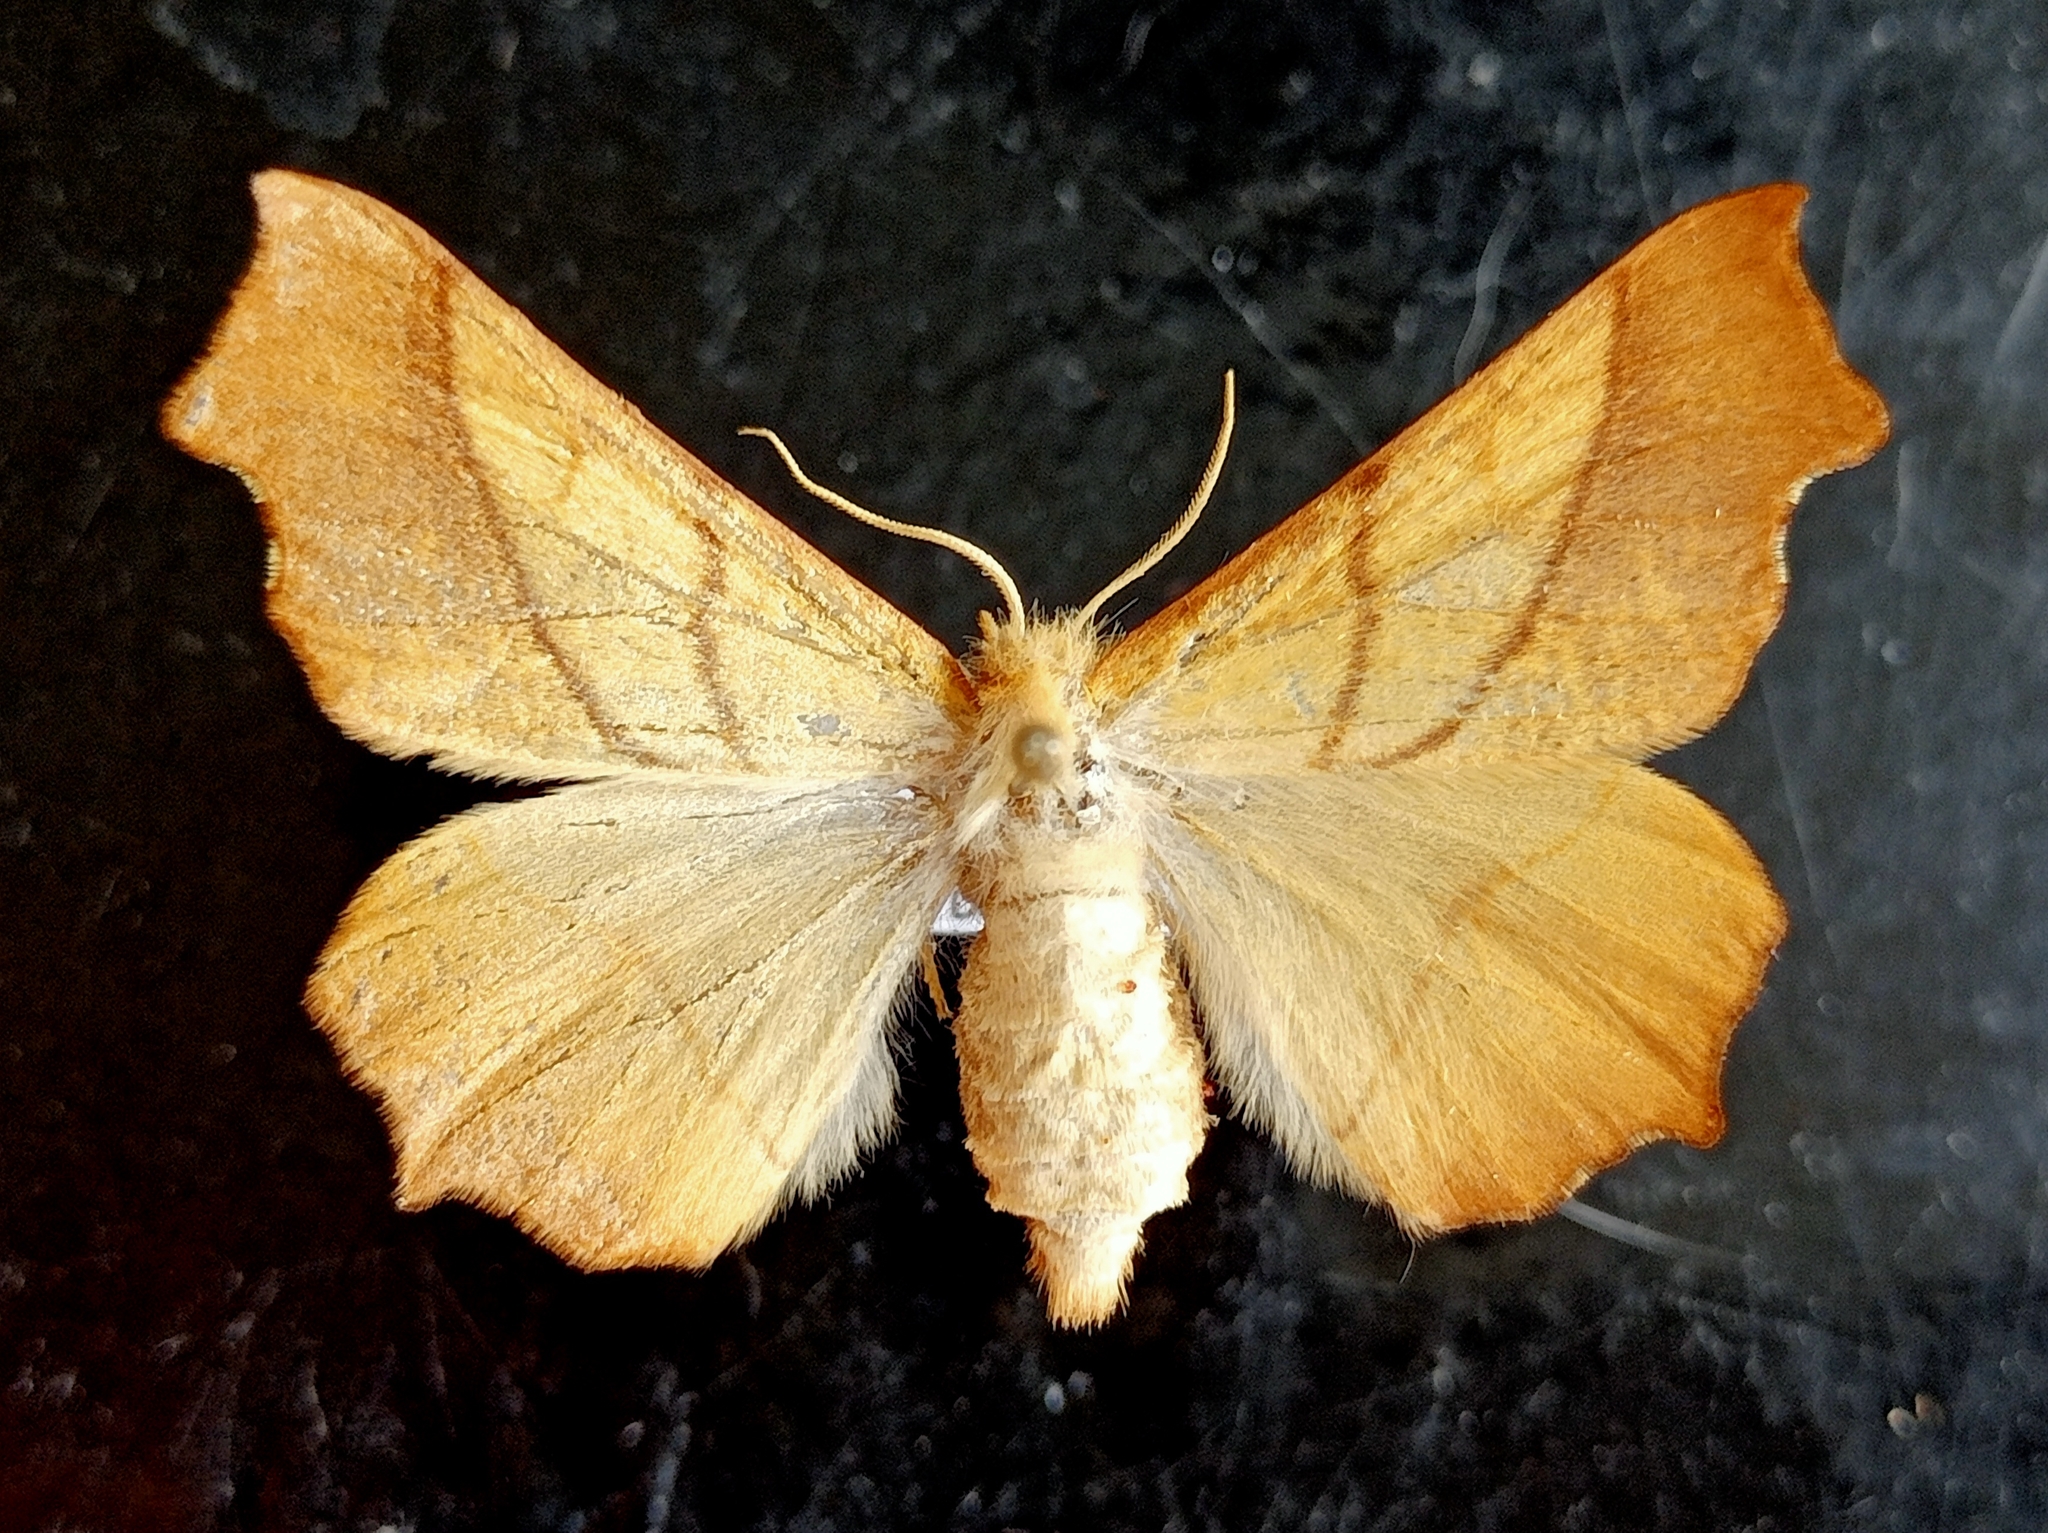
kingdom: Animalia
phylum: Arthropoda
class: Insecta
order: Lepidoptera
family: Geometridae
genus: Ennomos
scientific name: Ennomos fuscantaria
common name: Dusky thorn
